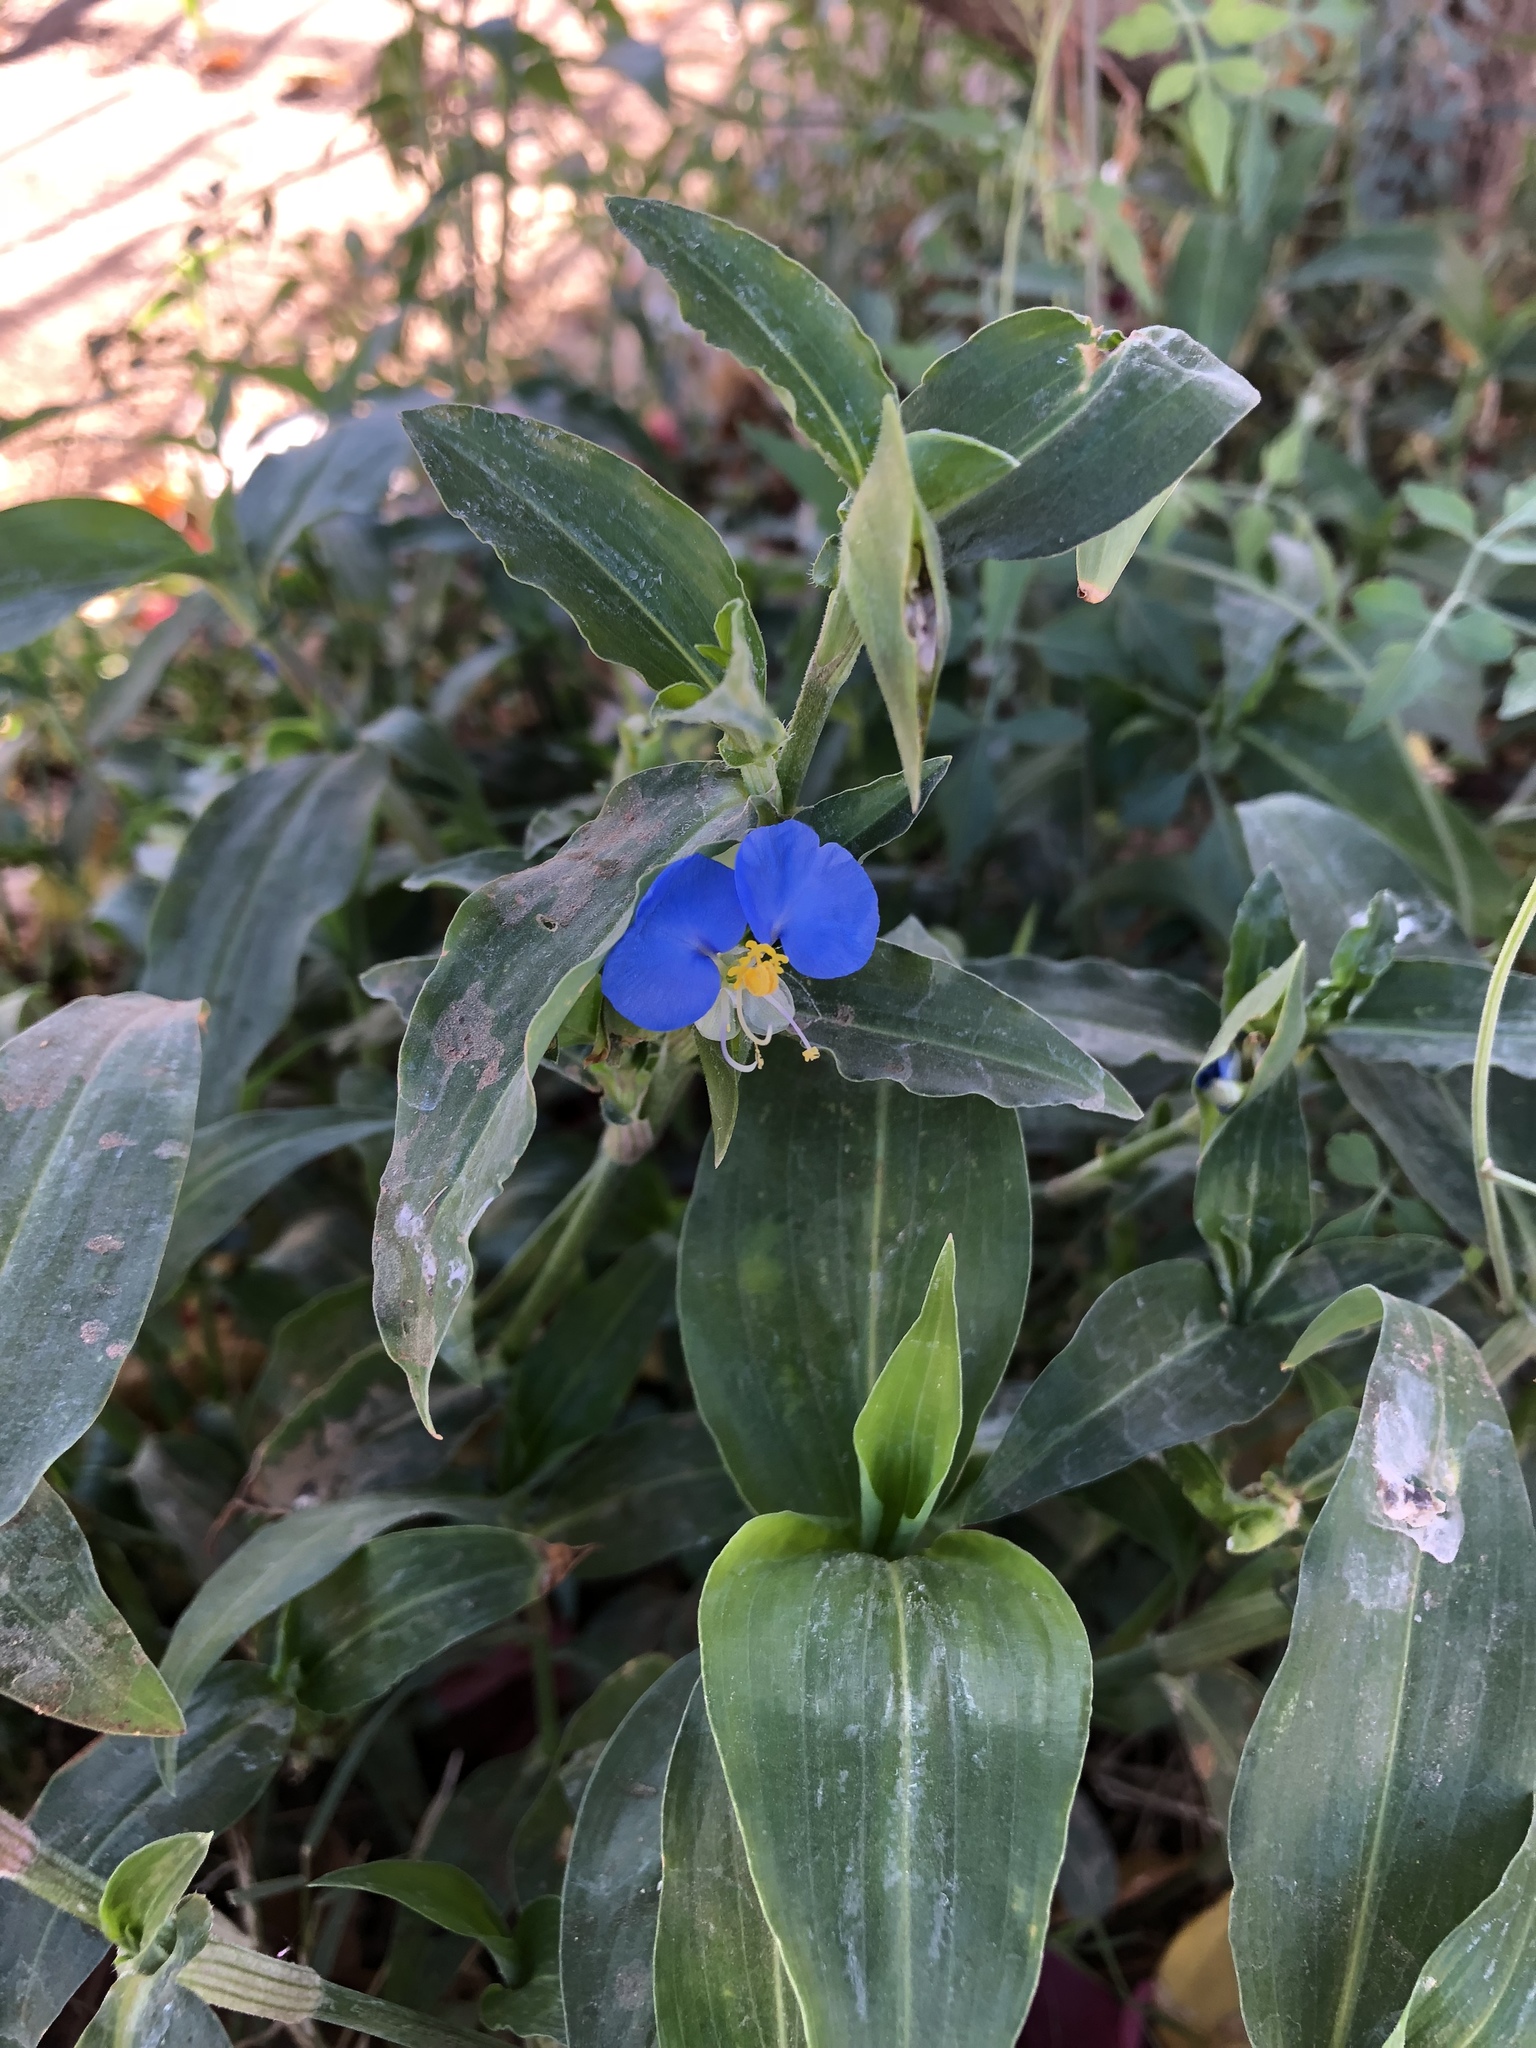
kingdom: Plantae
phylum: Tracheophyta
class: Liliopsida
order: Commelinales
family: Commelinaceae
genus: Commelina
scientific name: Commelina erecta
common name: Blousel blommetjie
